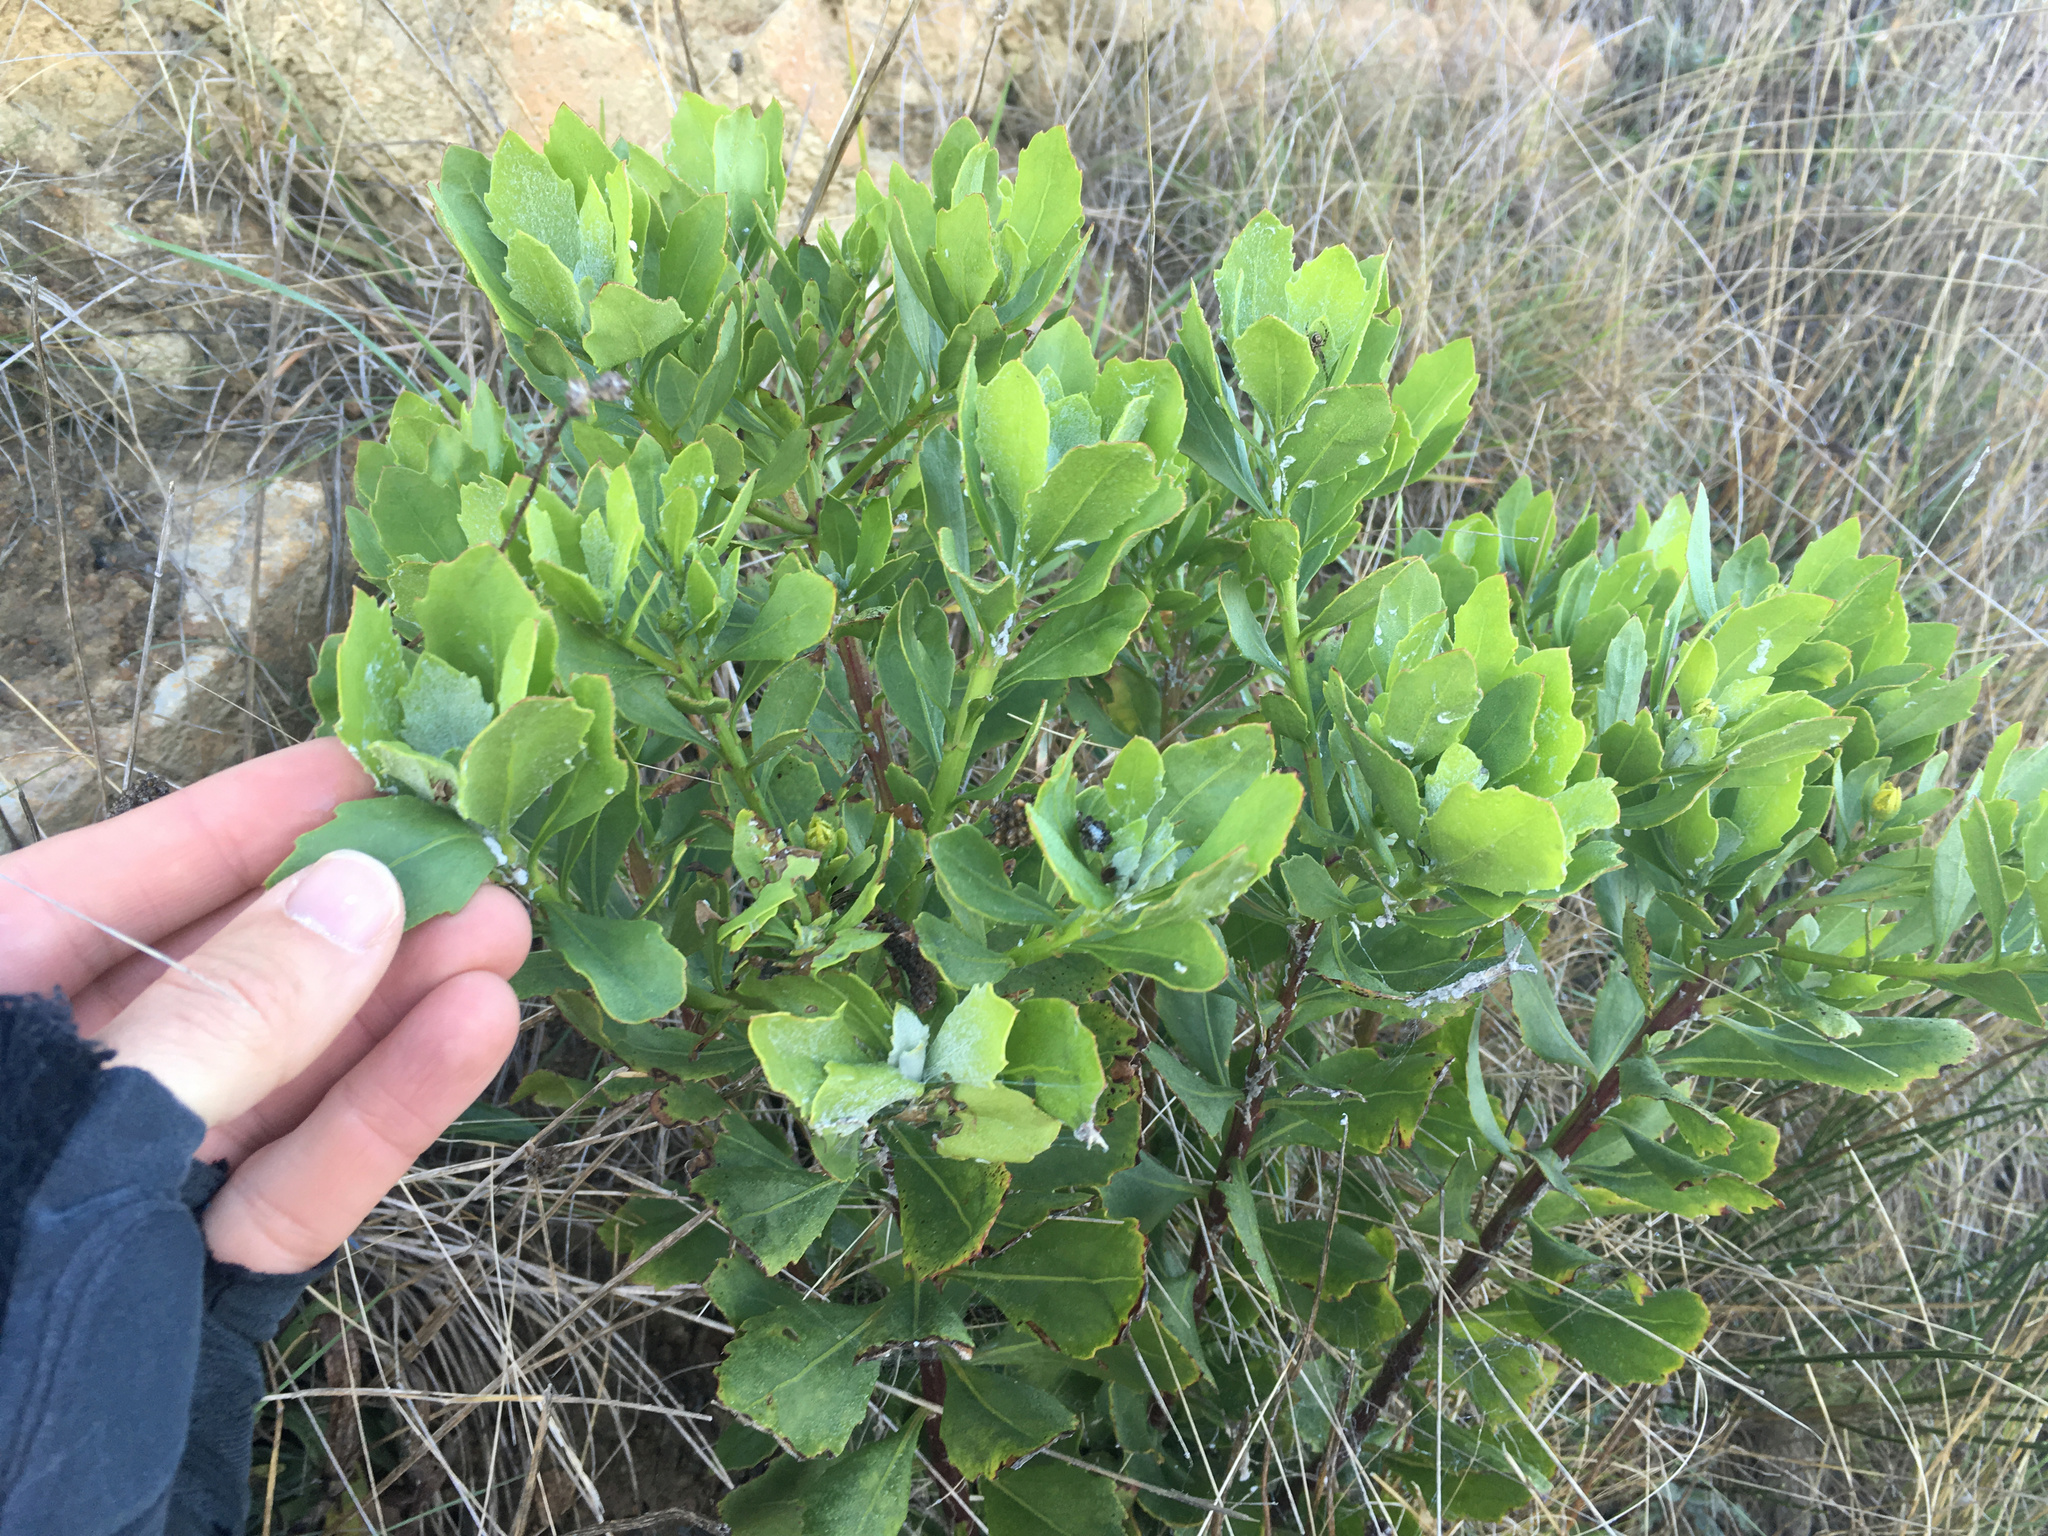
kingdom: Plantae
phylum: Tracheophyta
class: Magnoliopsida
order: Asterales
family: Asteraceae
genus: Osteospermum
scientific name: Osteospermum moniliferum
